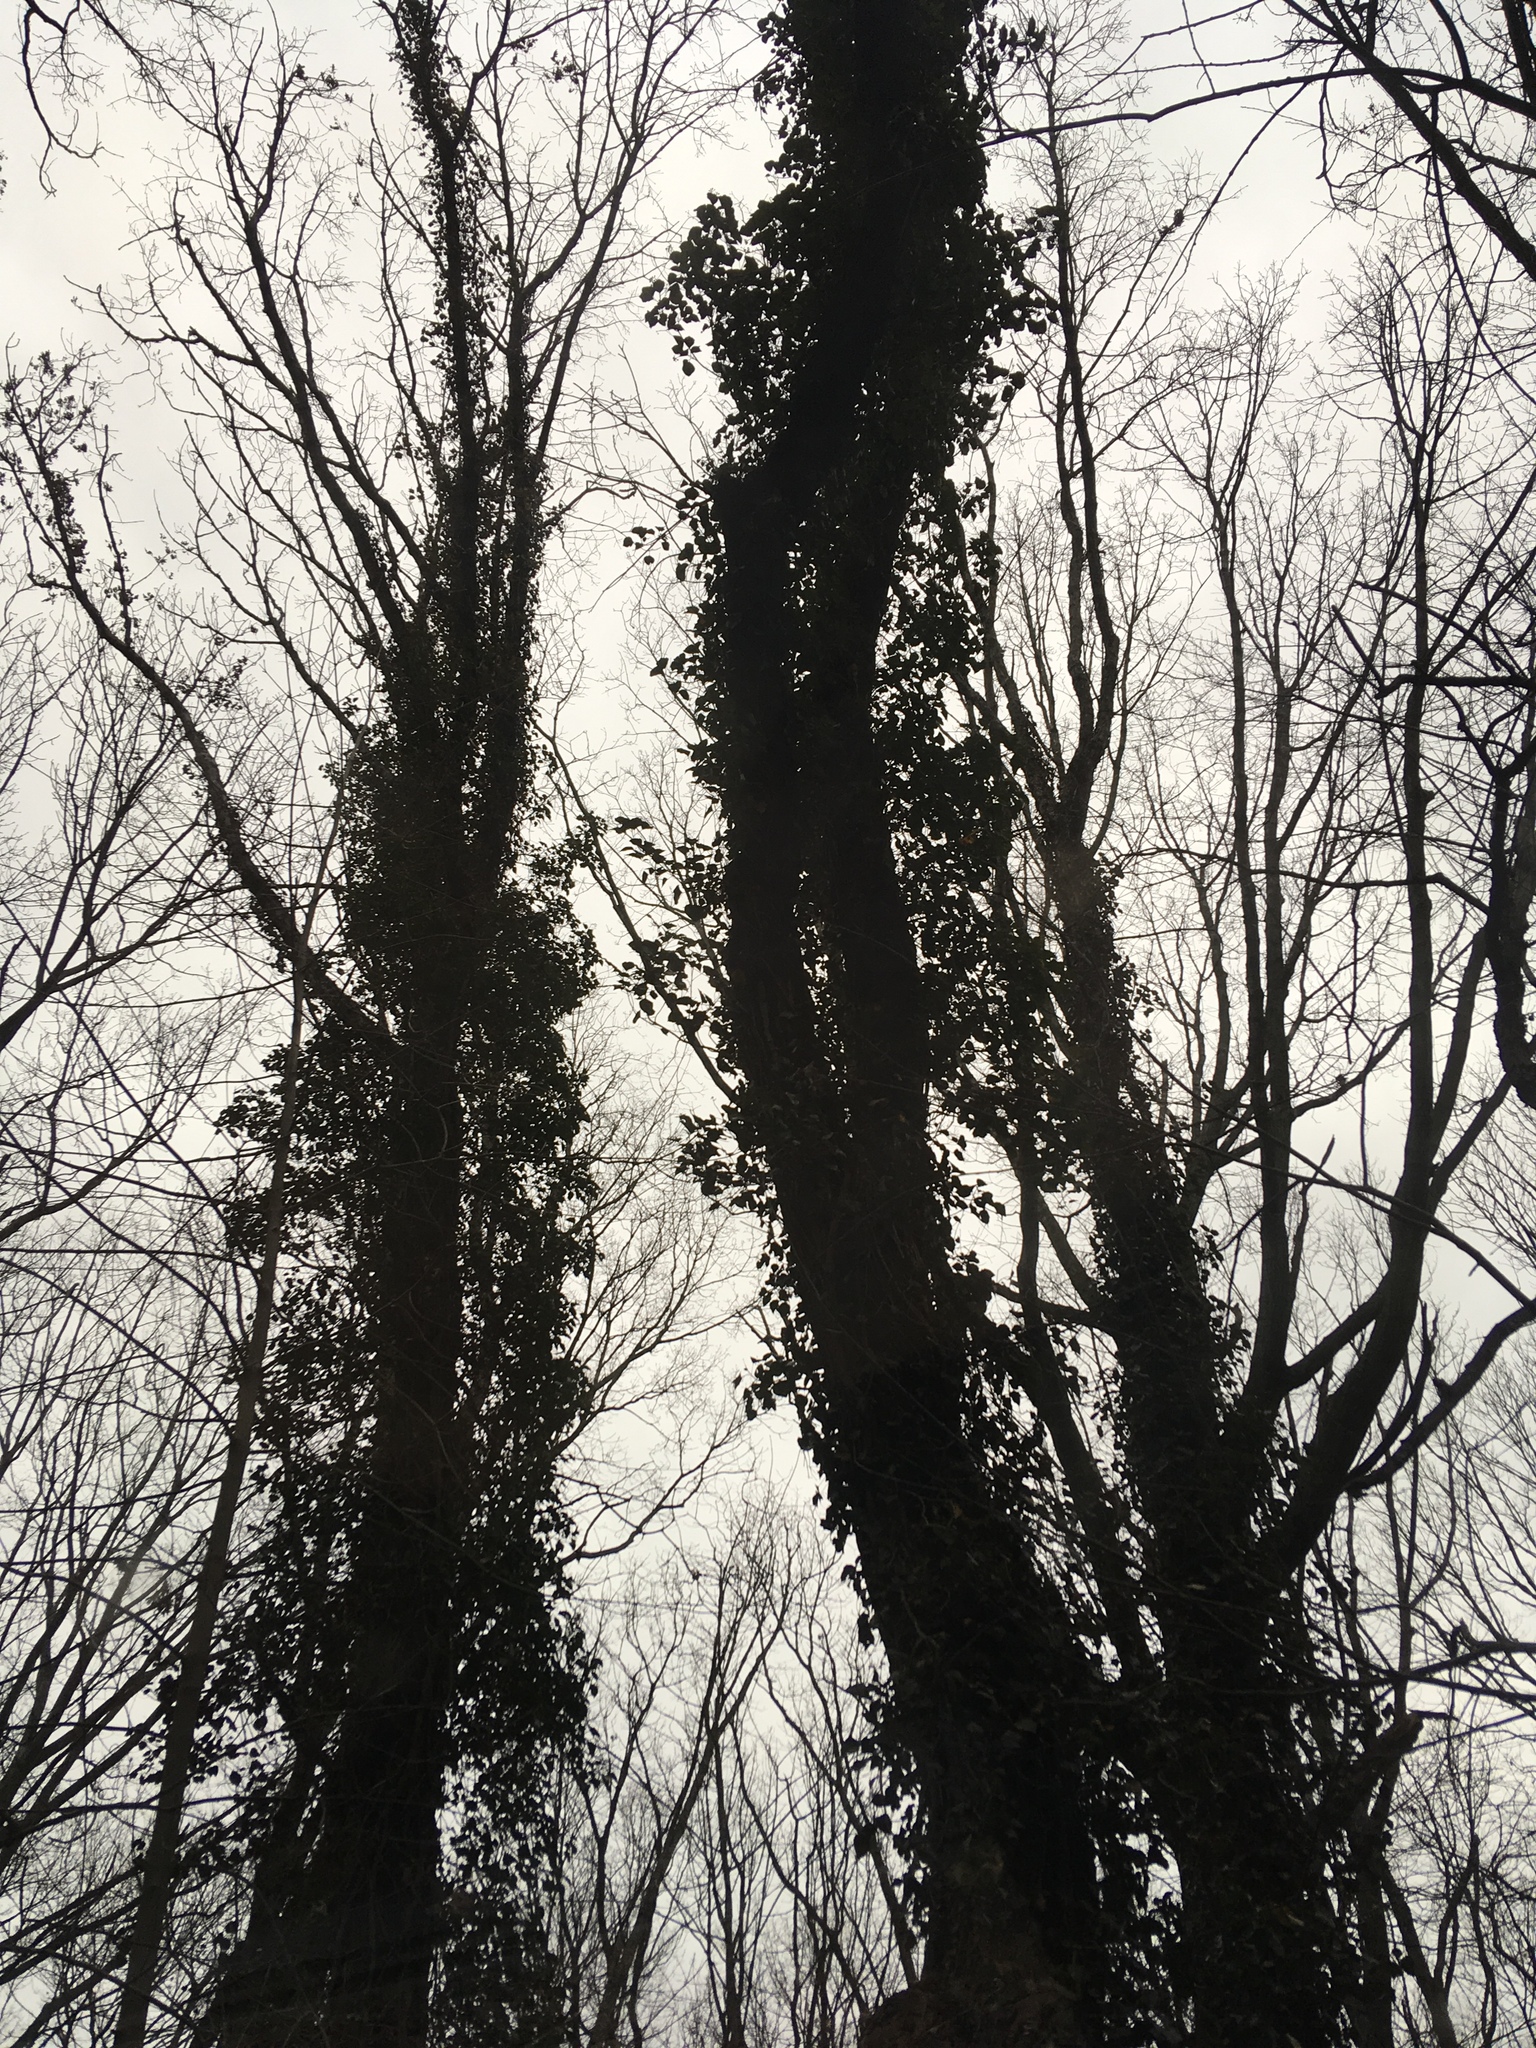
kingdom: Plantae
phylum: Tracheophyta
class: Magnoliopsida
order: Apiales
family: Araliaceae
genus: Hedera
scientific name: Hedera helix
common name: Ivy
